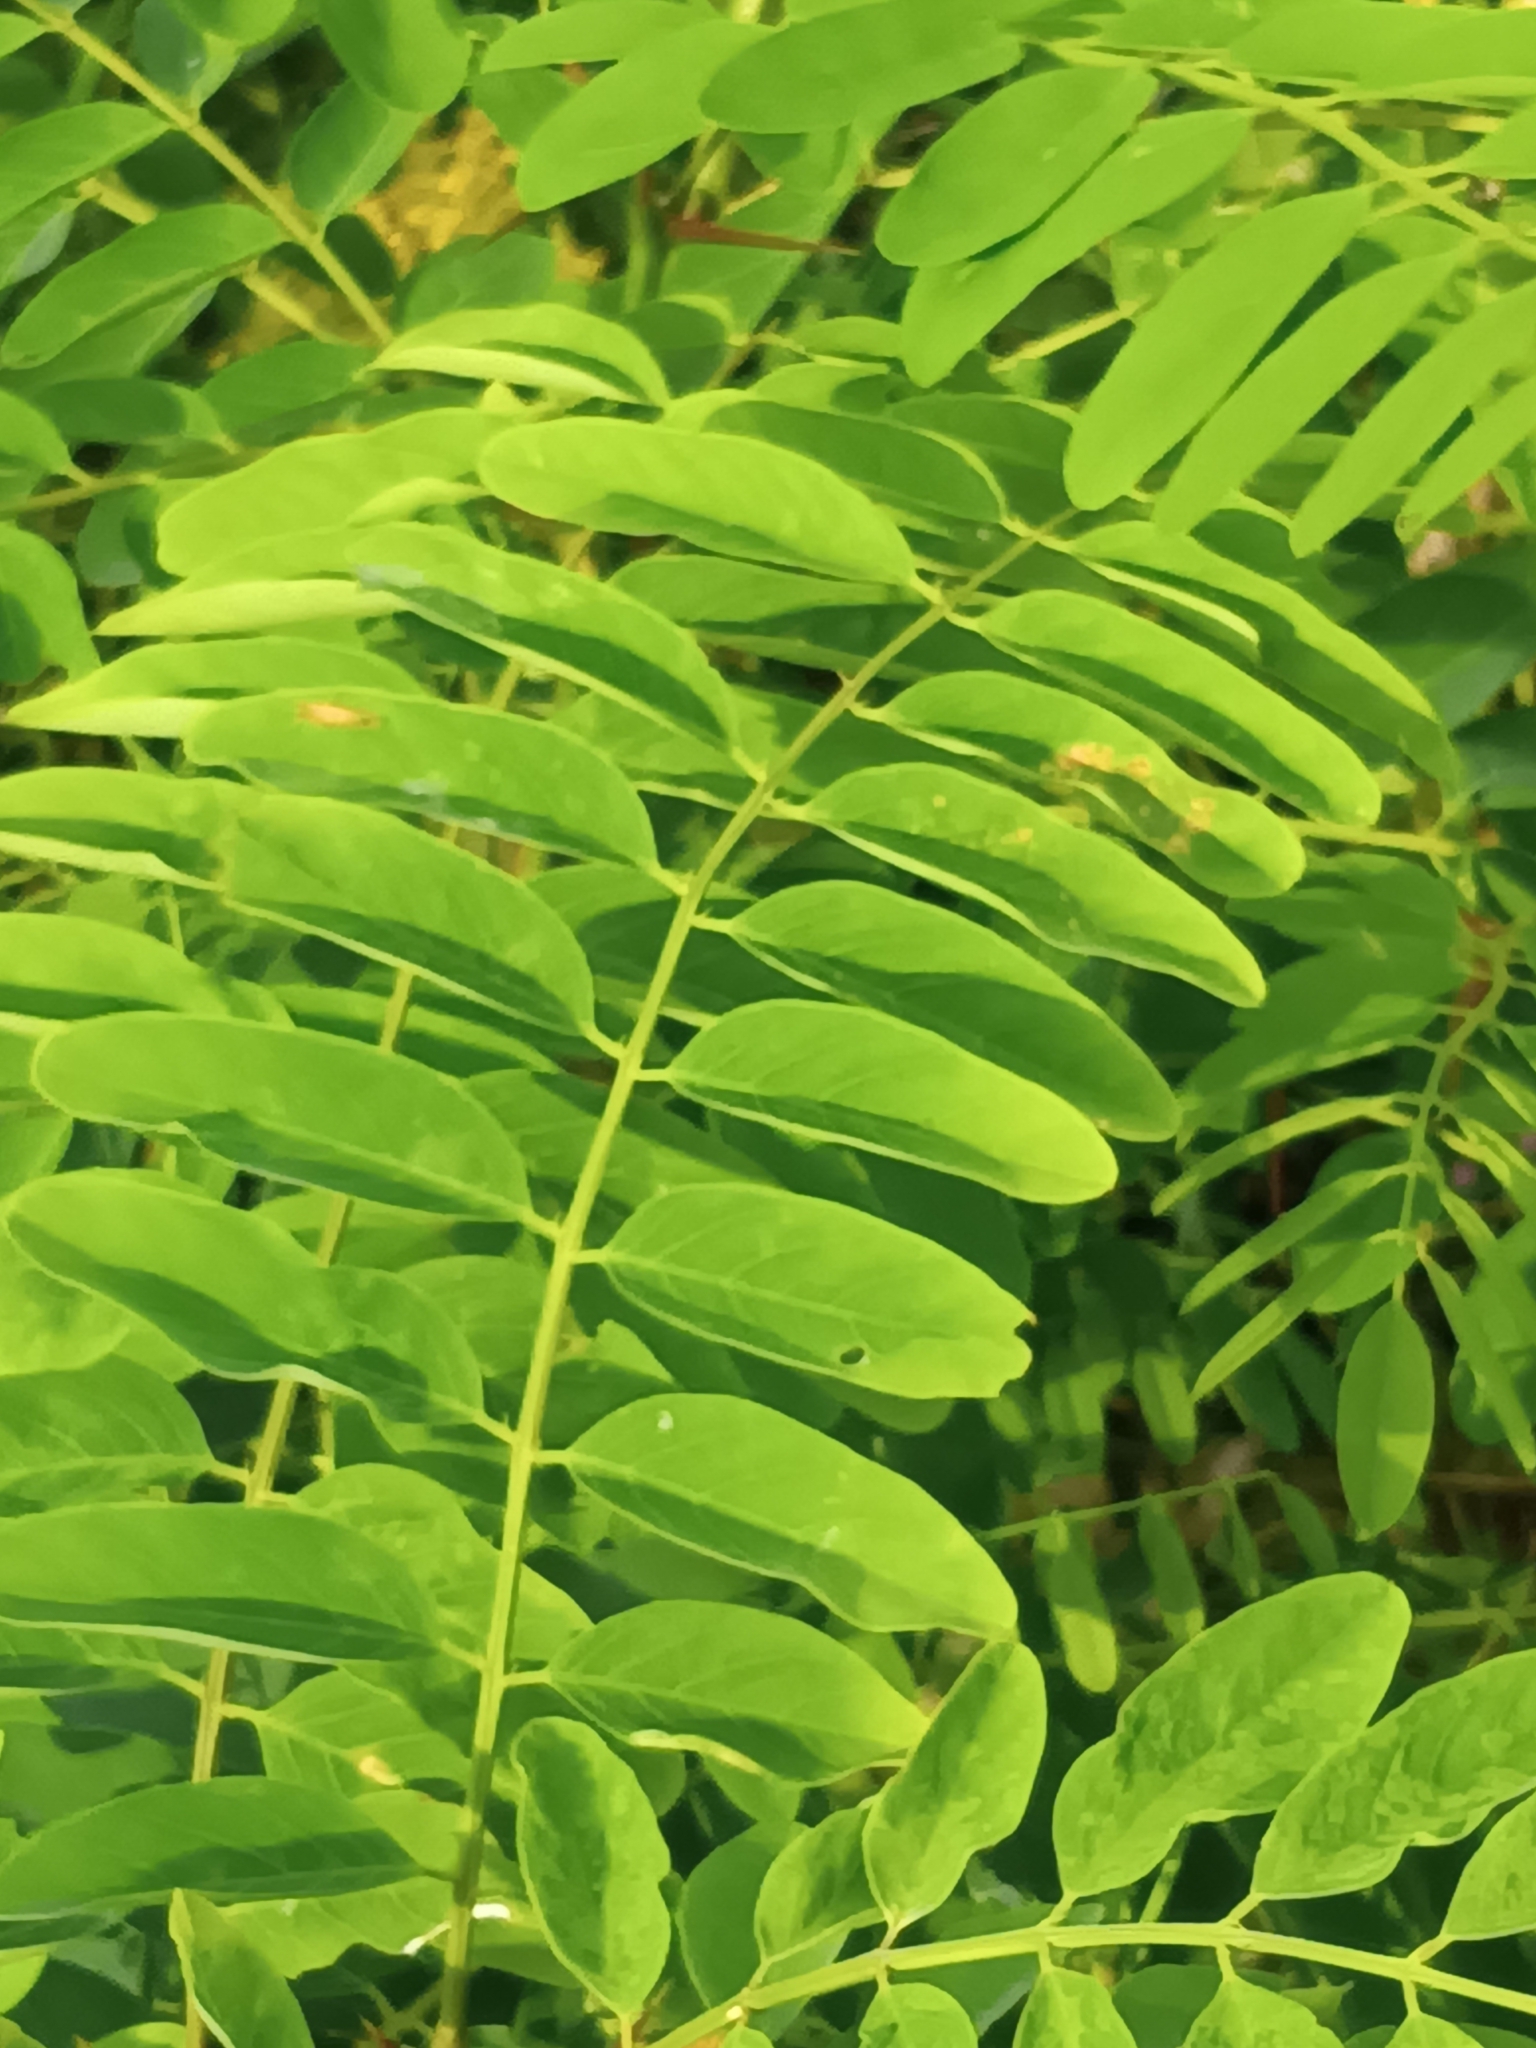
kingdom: Plantae
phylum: Tracheophyta
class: Magnoliopsida
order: Fabales
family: Fabaceae
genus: Robinia
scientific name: Robinia pseudoacacia
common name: Black locust
